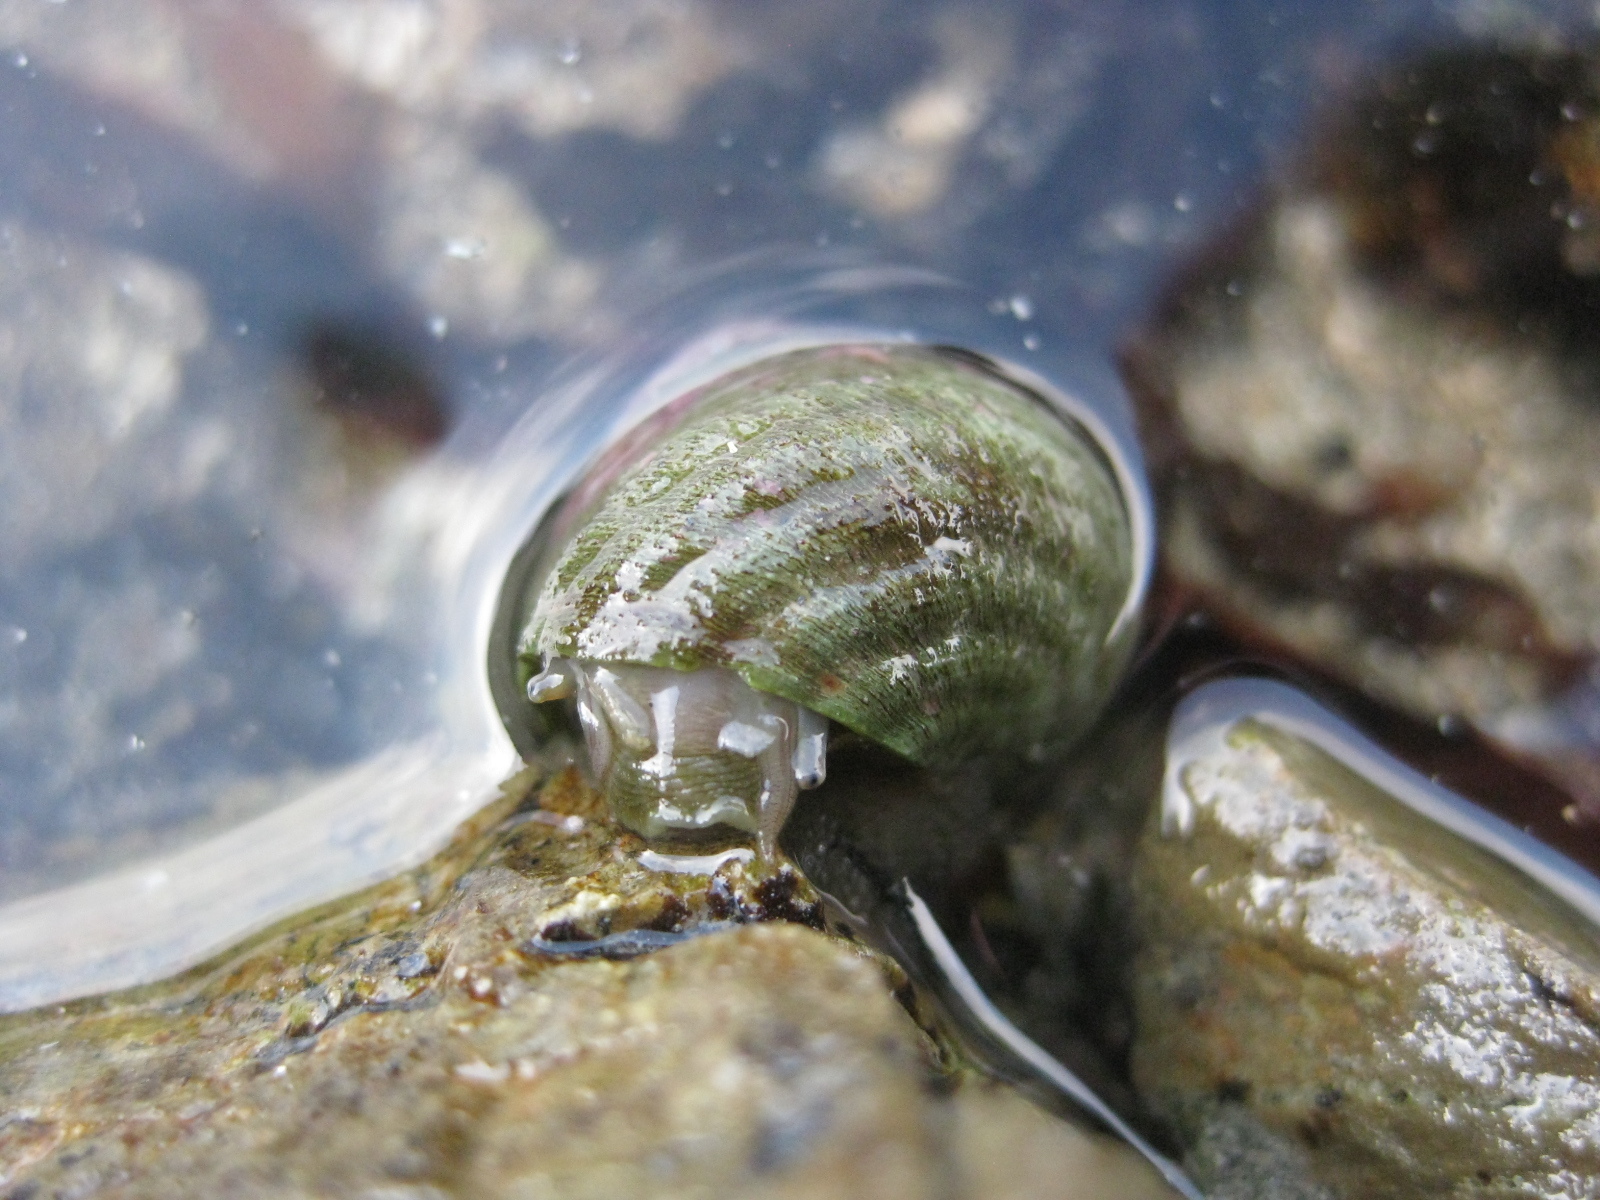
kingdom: Animalia
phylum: Mollusca
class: Gastropoda
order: Trochida
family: Trochidae
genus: Micrelenchus
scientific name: Micrelenchus purpureus
